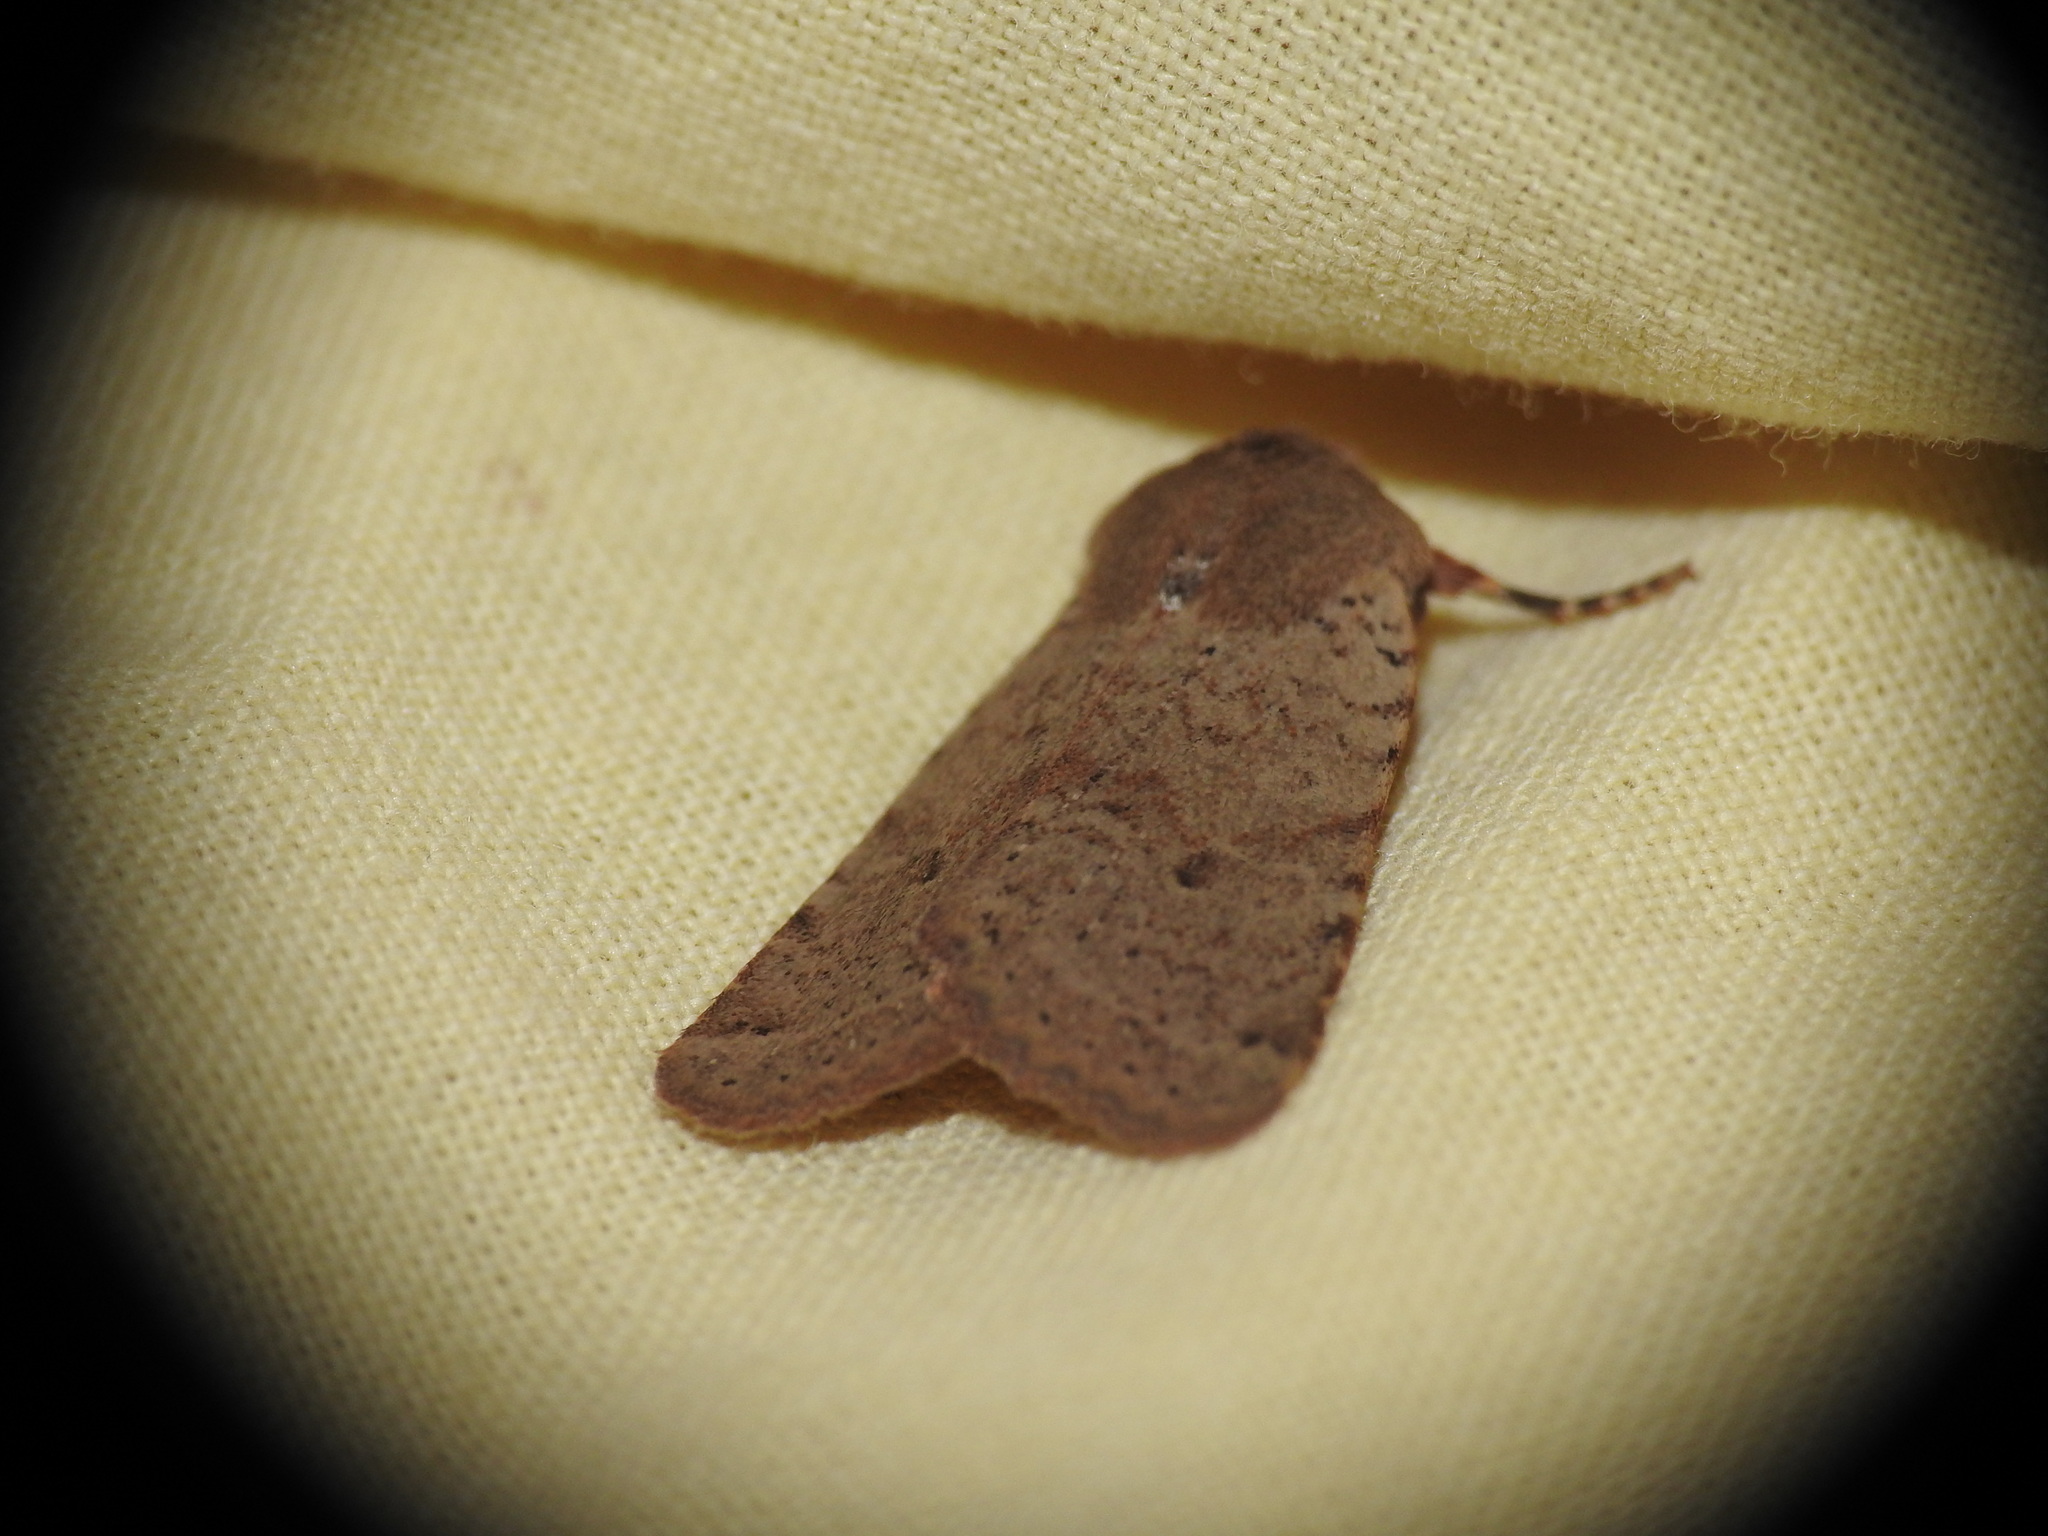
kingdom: Animalia
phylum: Arthropoda
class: Insecta
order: Lepidoptera
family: Noctuidae
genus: Agrochola
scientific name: Agrochola ruticilla
